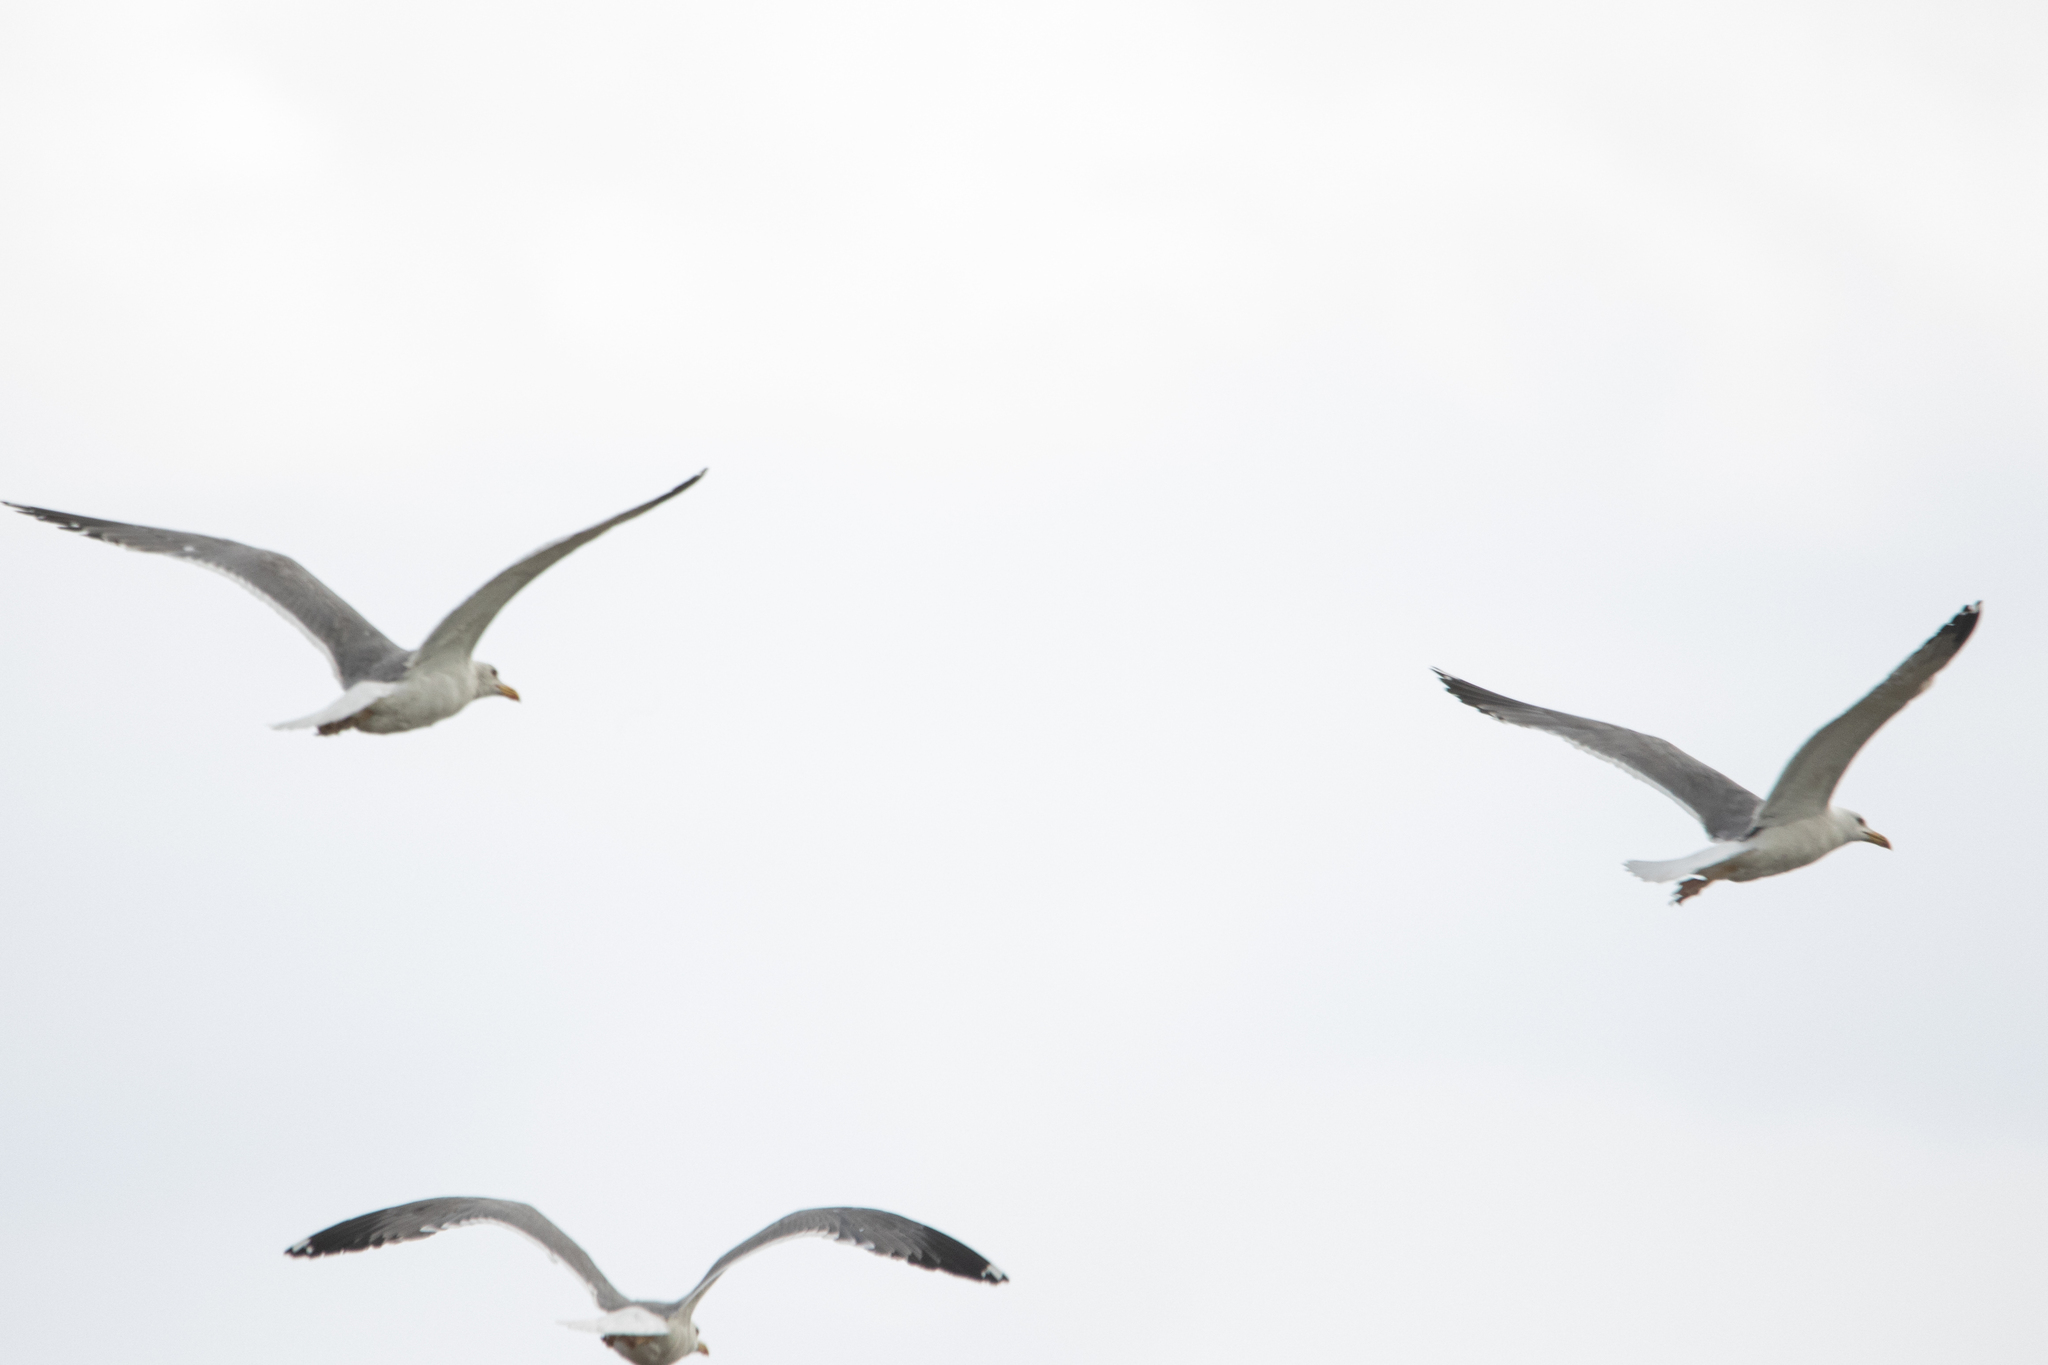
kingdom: Animalia
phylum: Chordata
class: Aves
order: Charadriiformes
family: Laridae
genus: Larus
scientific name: Larus fuscus
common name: Lesser black-backed gull
